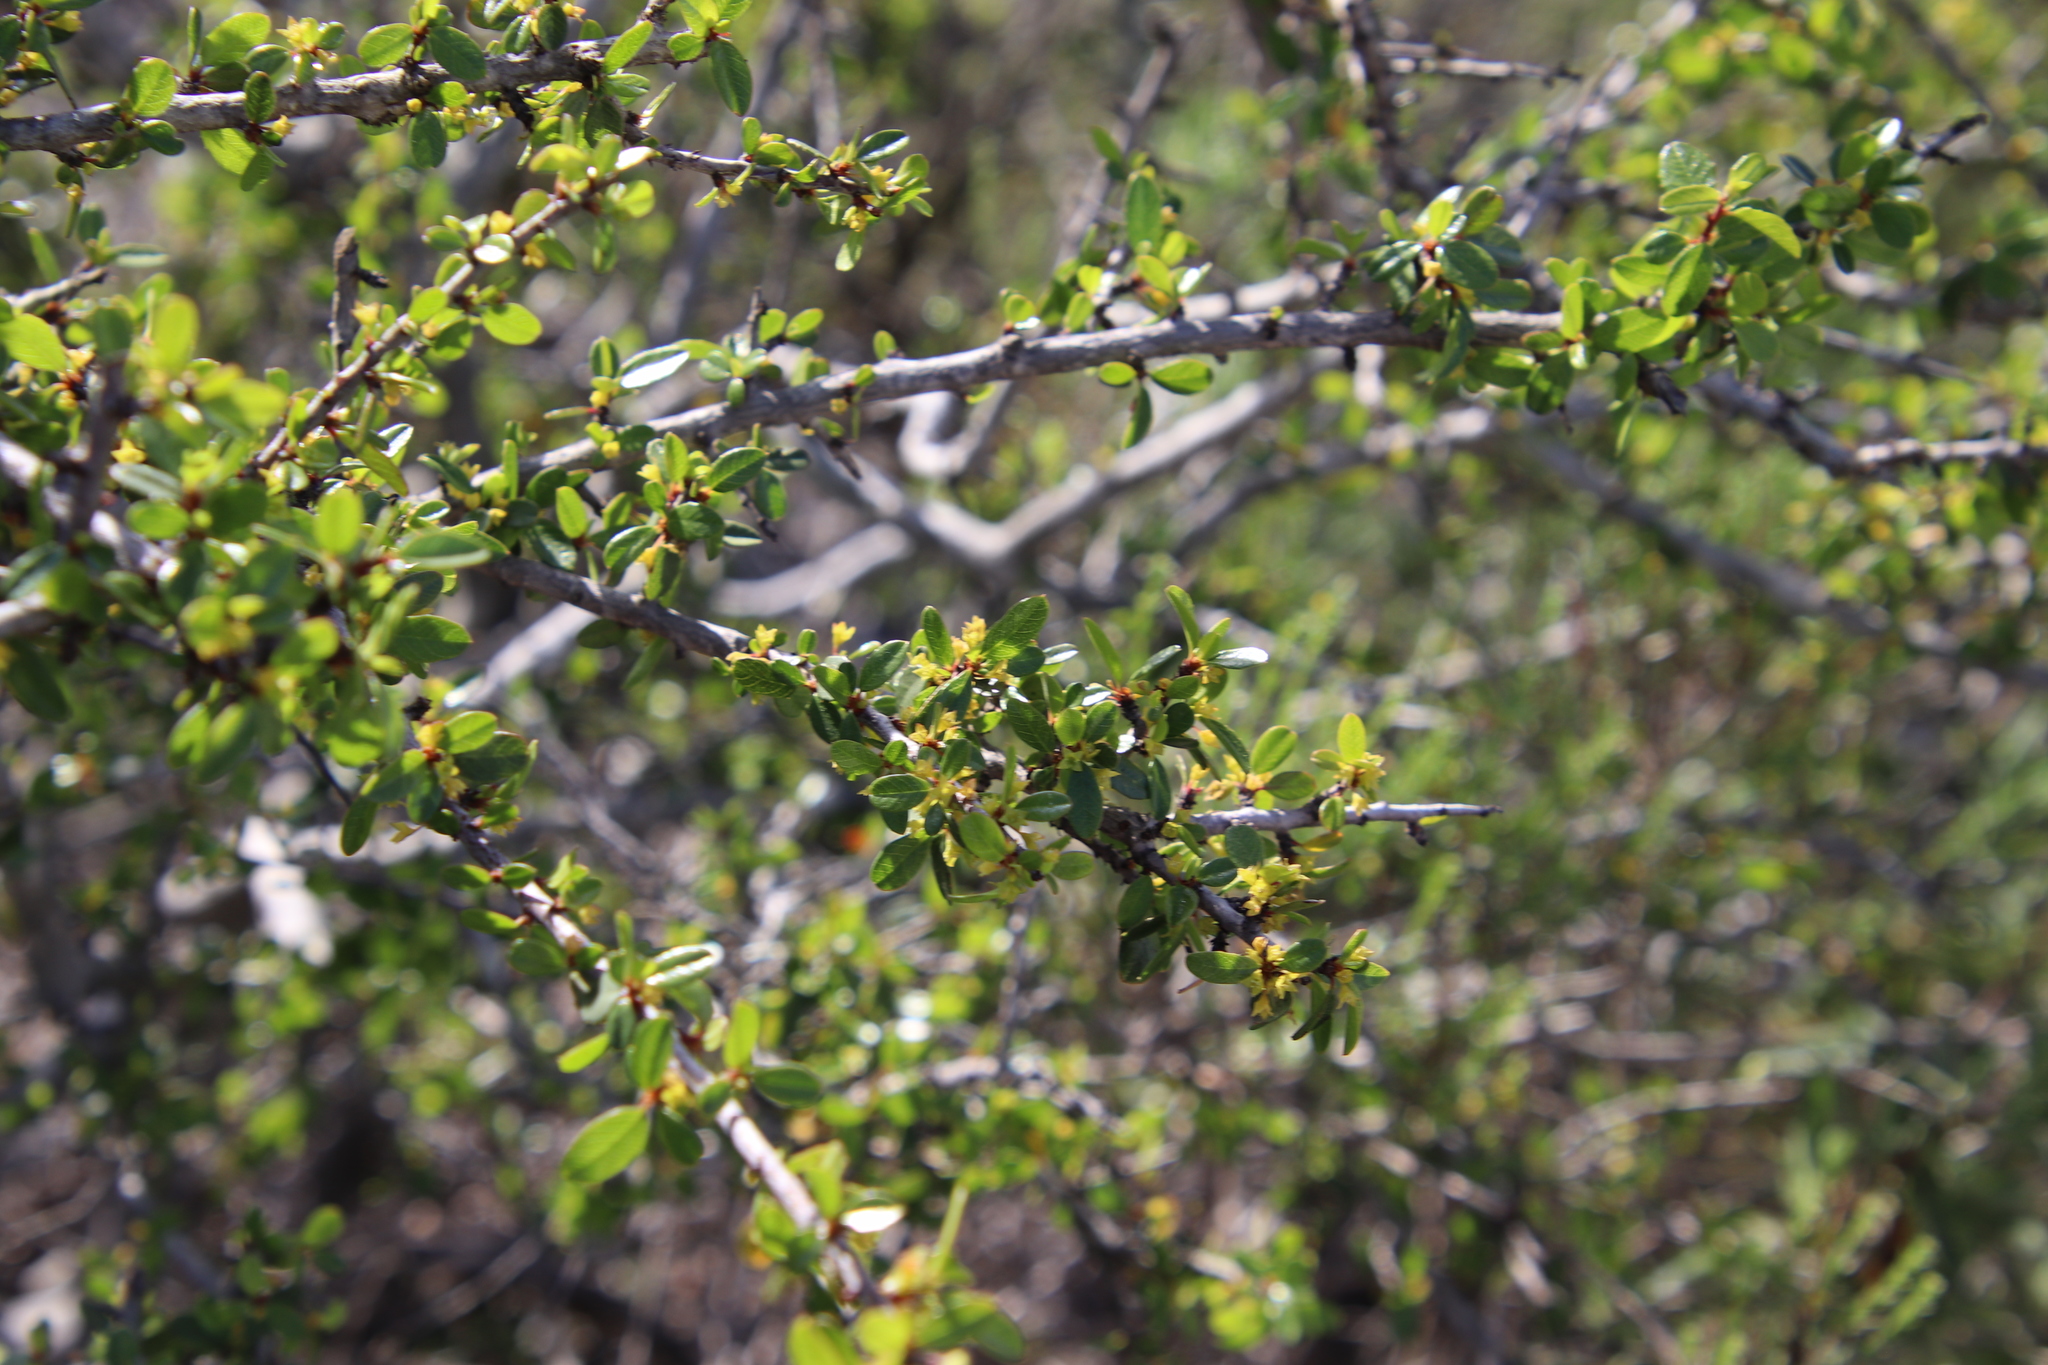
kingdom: Plantae
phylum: Tracheophyta
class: Magnoliopsida
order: Rosales
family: Rhamnaceae
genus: Endotropis
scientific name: Endotropis crocea
